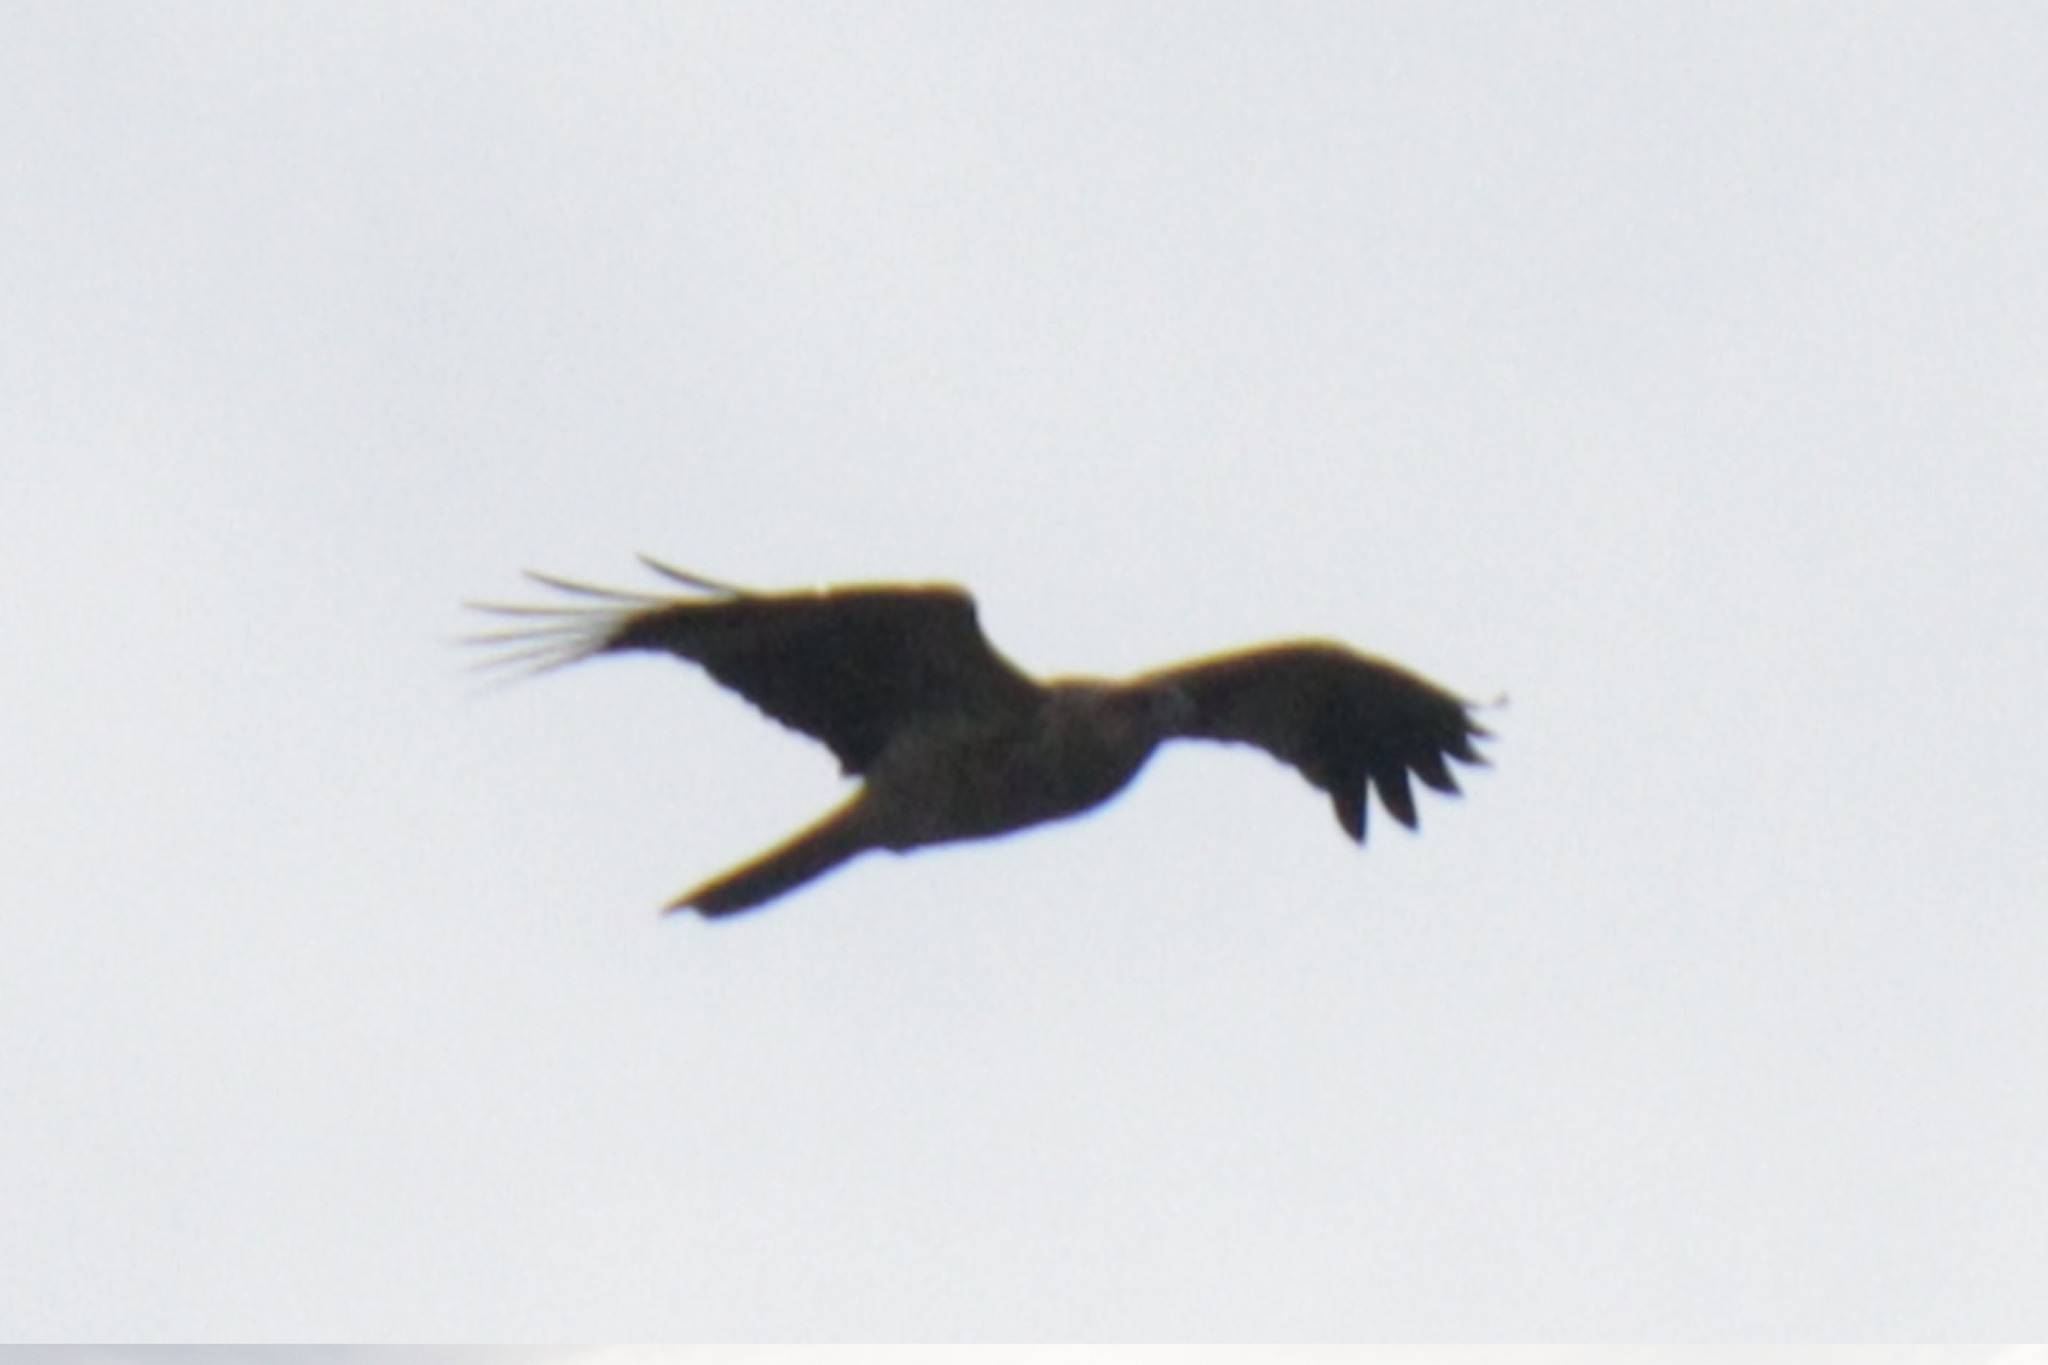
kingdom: Animalia
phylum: Chordata
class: Aves
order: Accipitriformes
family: Accipitridae
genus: Haliastur
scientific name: Haliastur sphenurus
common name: Whistling kite
